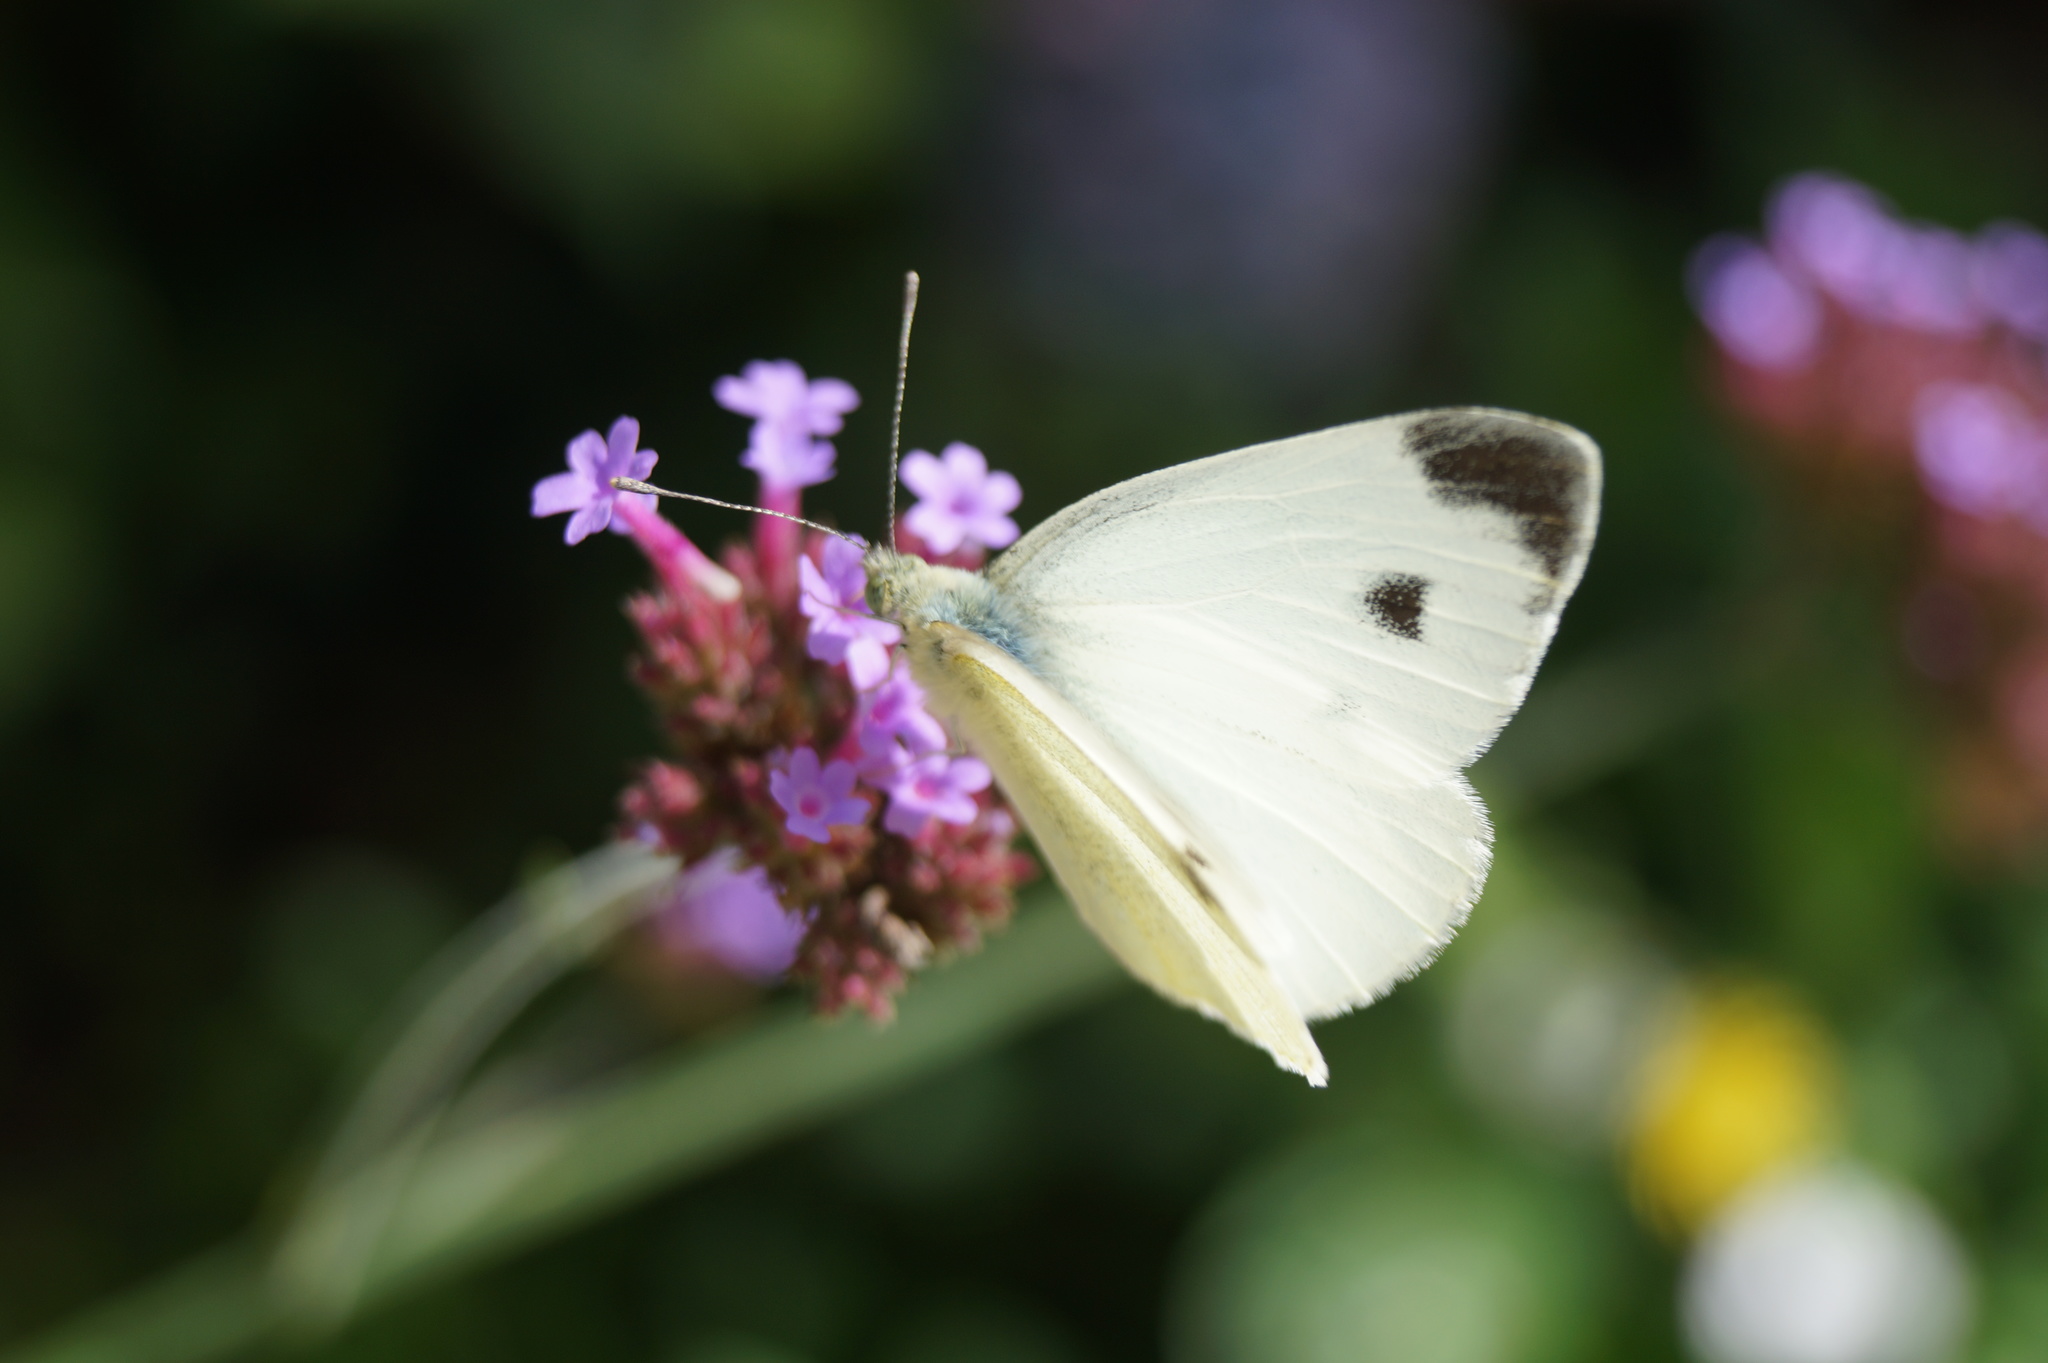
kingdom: Animalia
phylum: Arthropoda
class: Insecta
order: Lepidoptera
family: Pieridae
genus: Pieris
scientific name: Pieris mannii
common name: Southern small white
